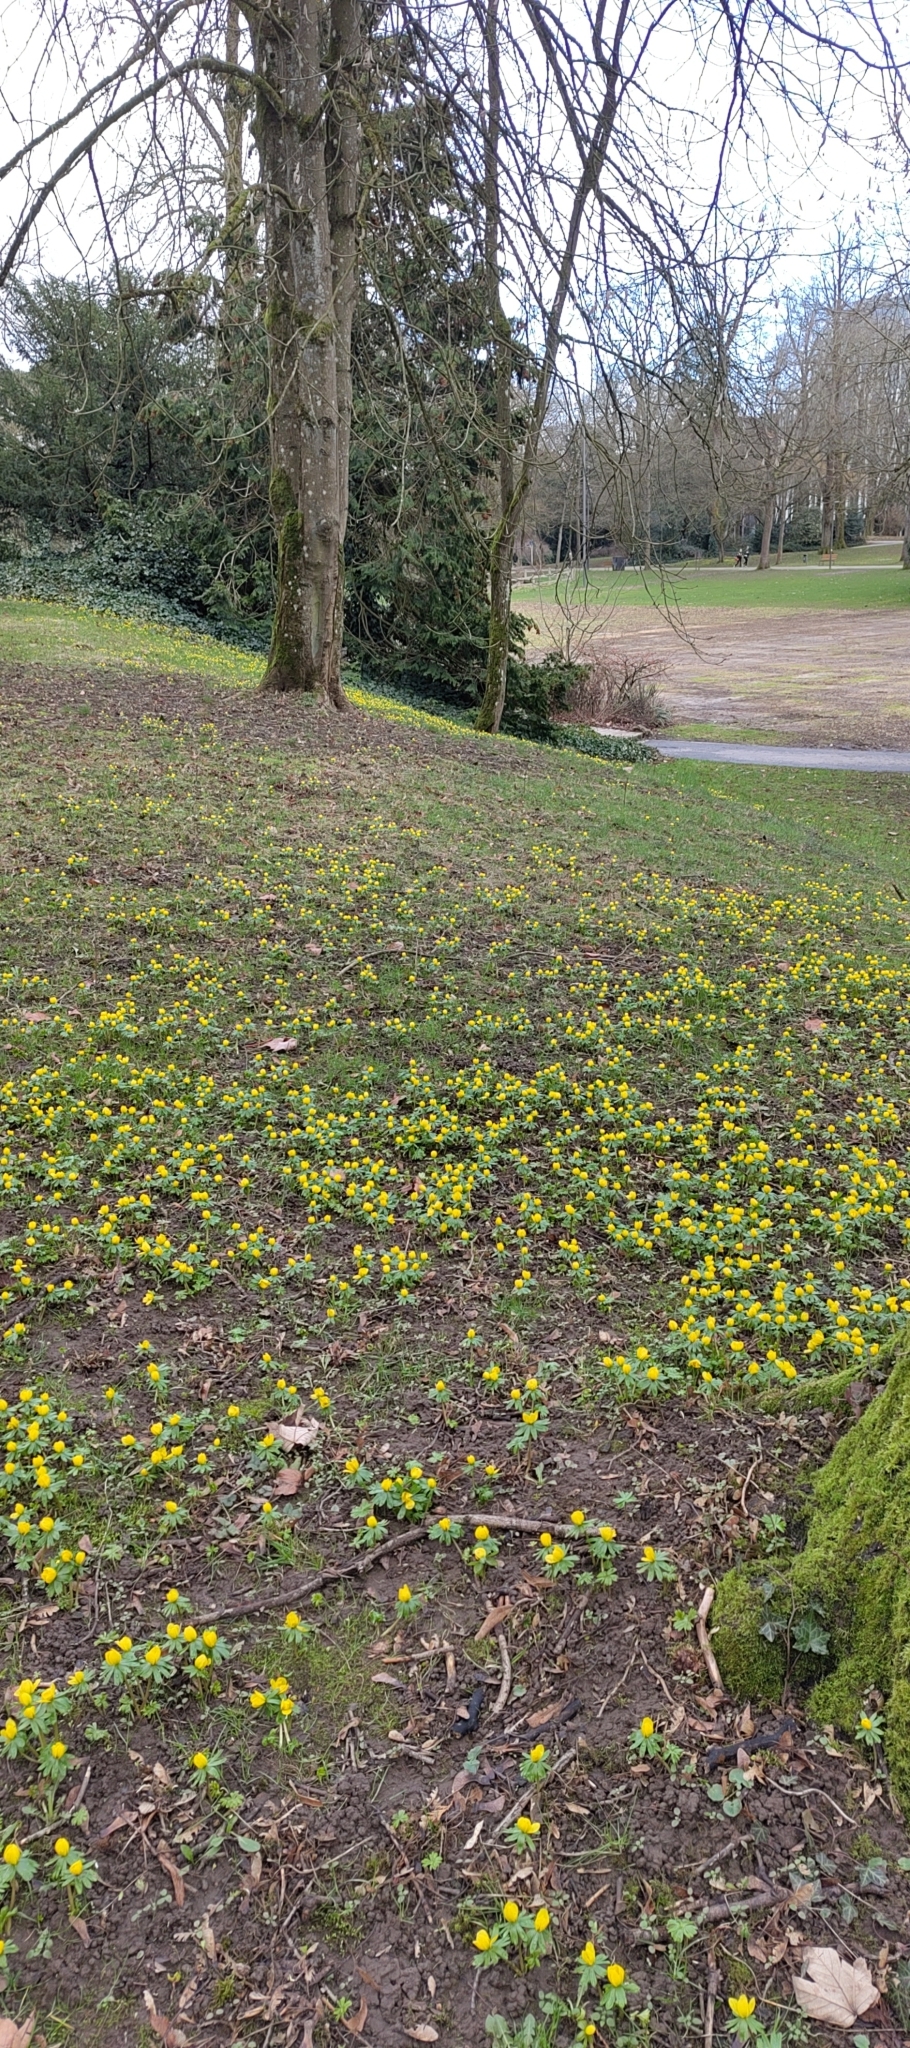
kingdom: Plantae
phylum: Tracheophyta
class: Magnoliopsida
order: Ranunculales
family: Ranunculaceae
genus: Eranthis
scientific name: Eranthis hyemalis
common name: Winter aconite
